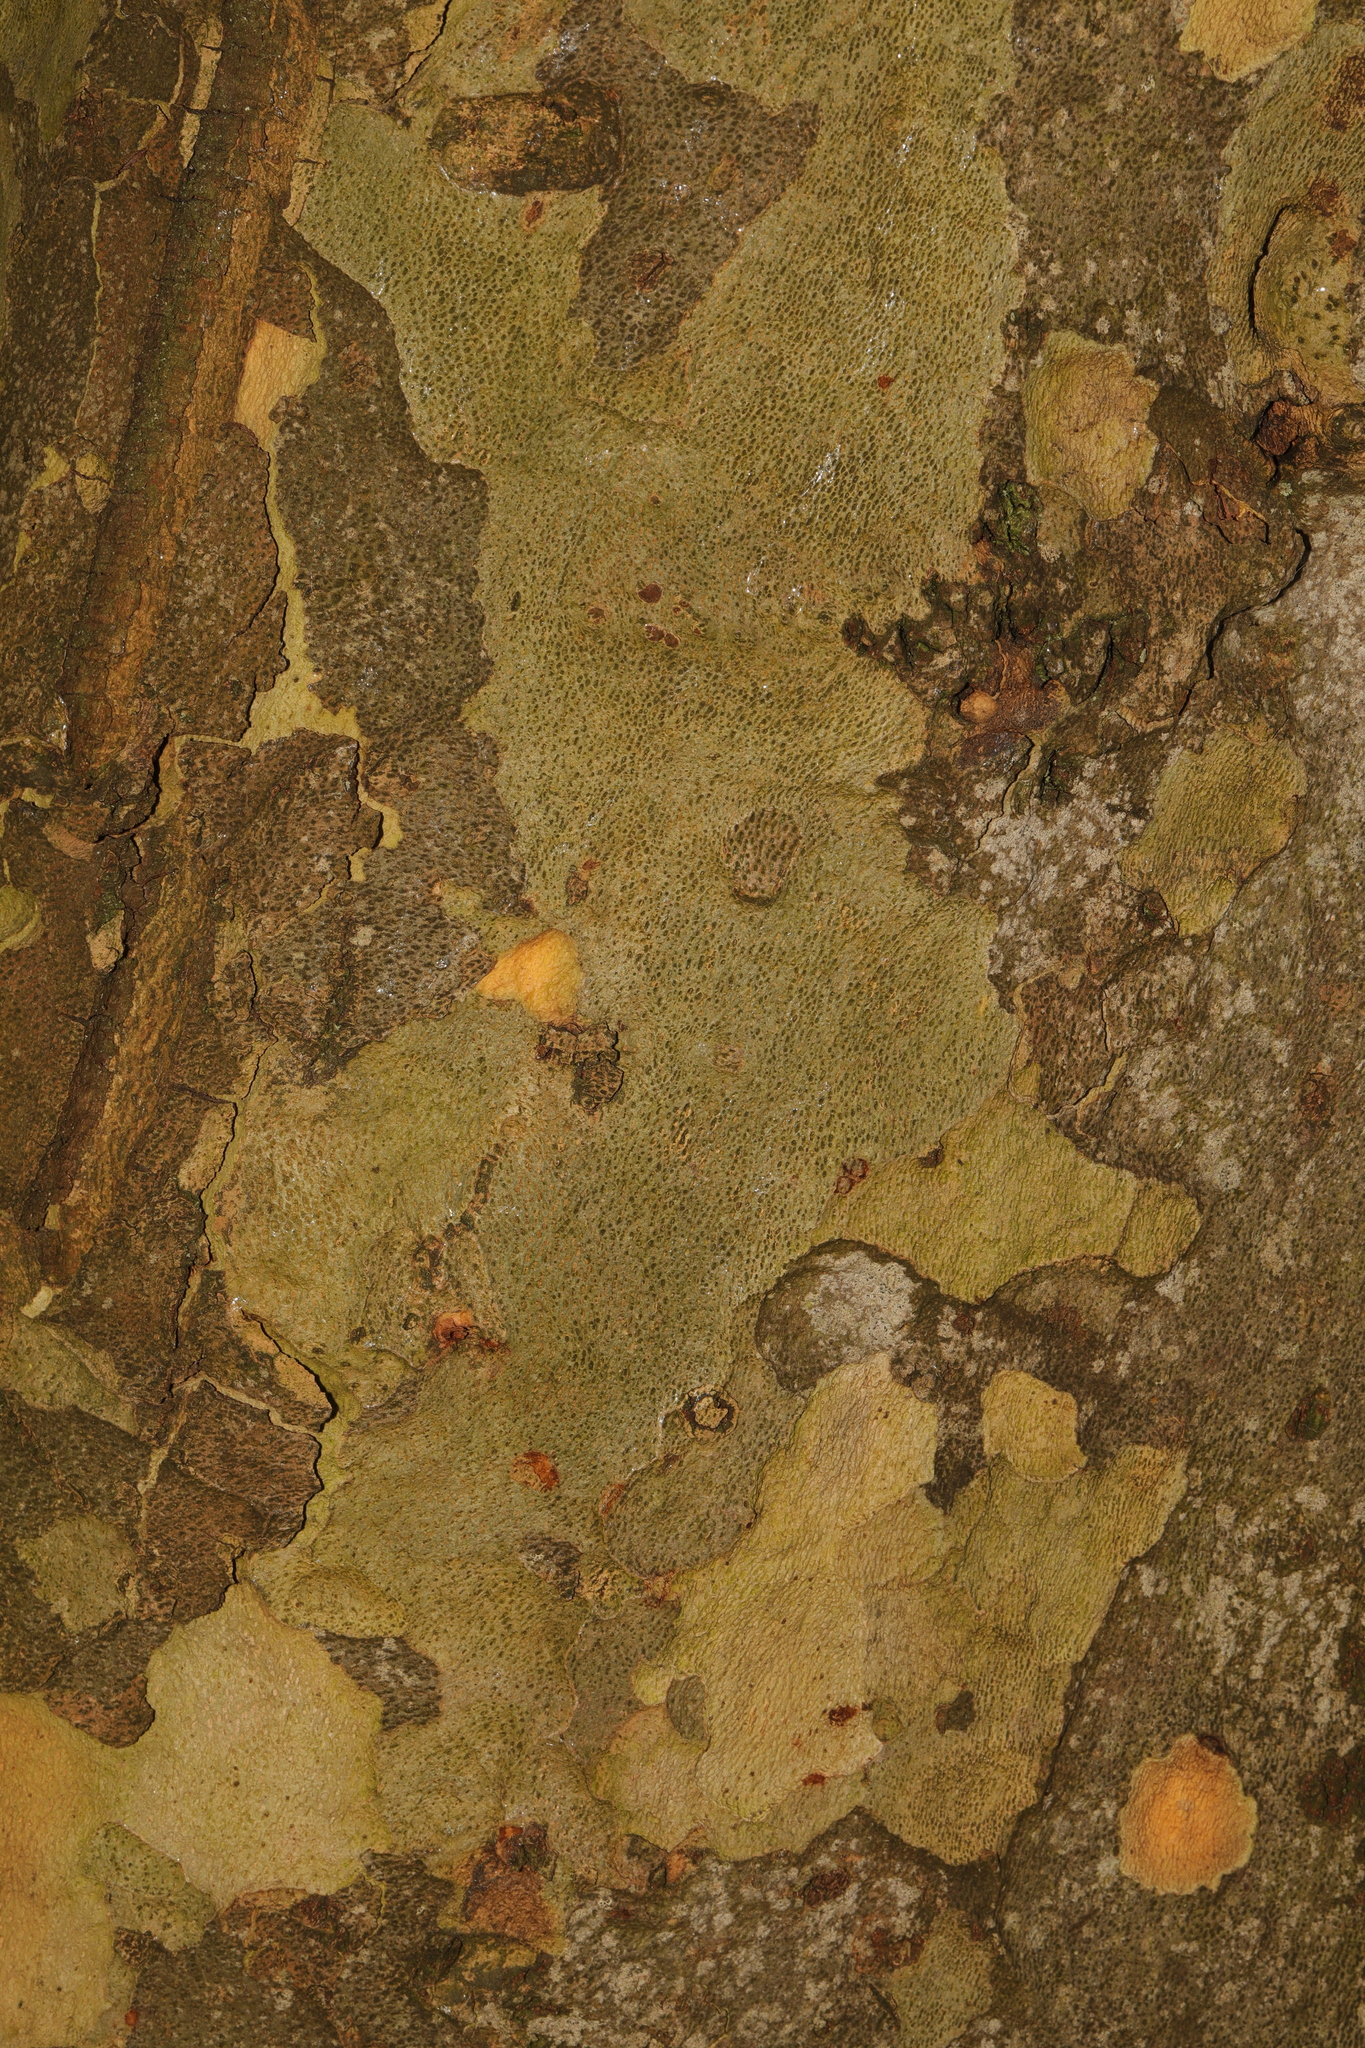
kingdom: Plantae
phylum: Tracheophyta
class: Magnoliopsida
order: Proteales
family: Platanaceae
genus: Platanus
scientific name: Platanus hispanica
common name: London plane
